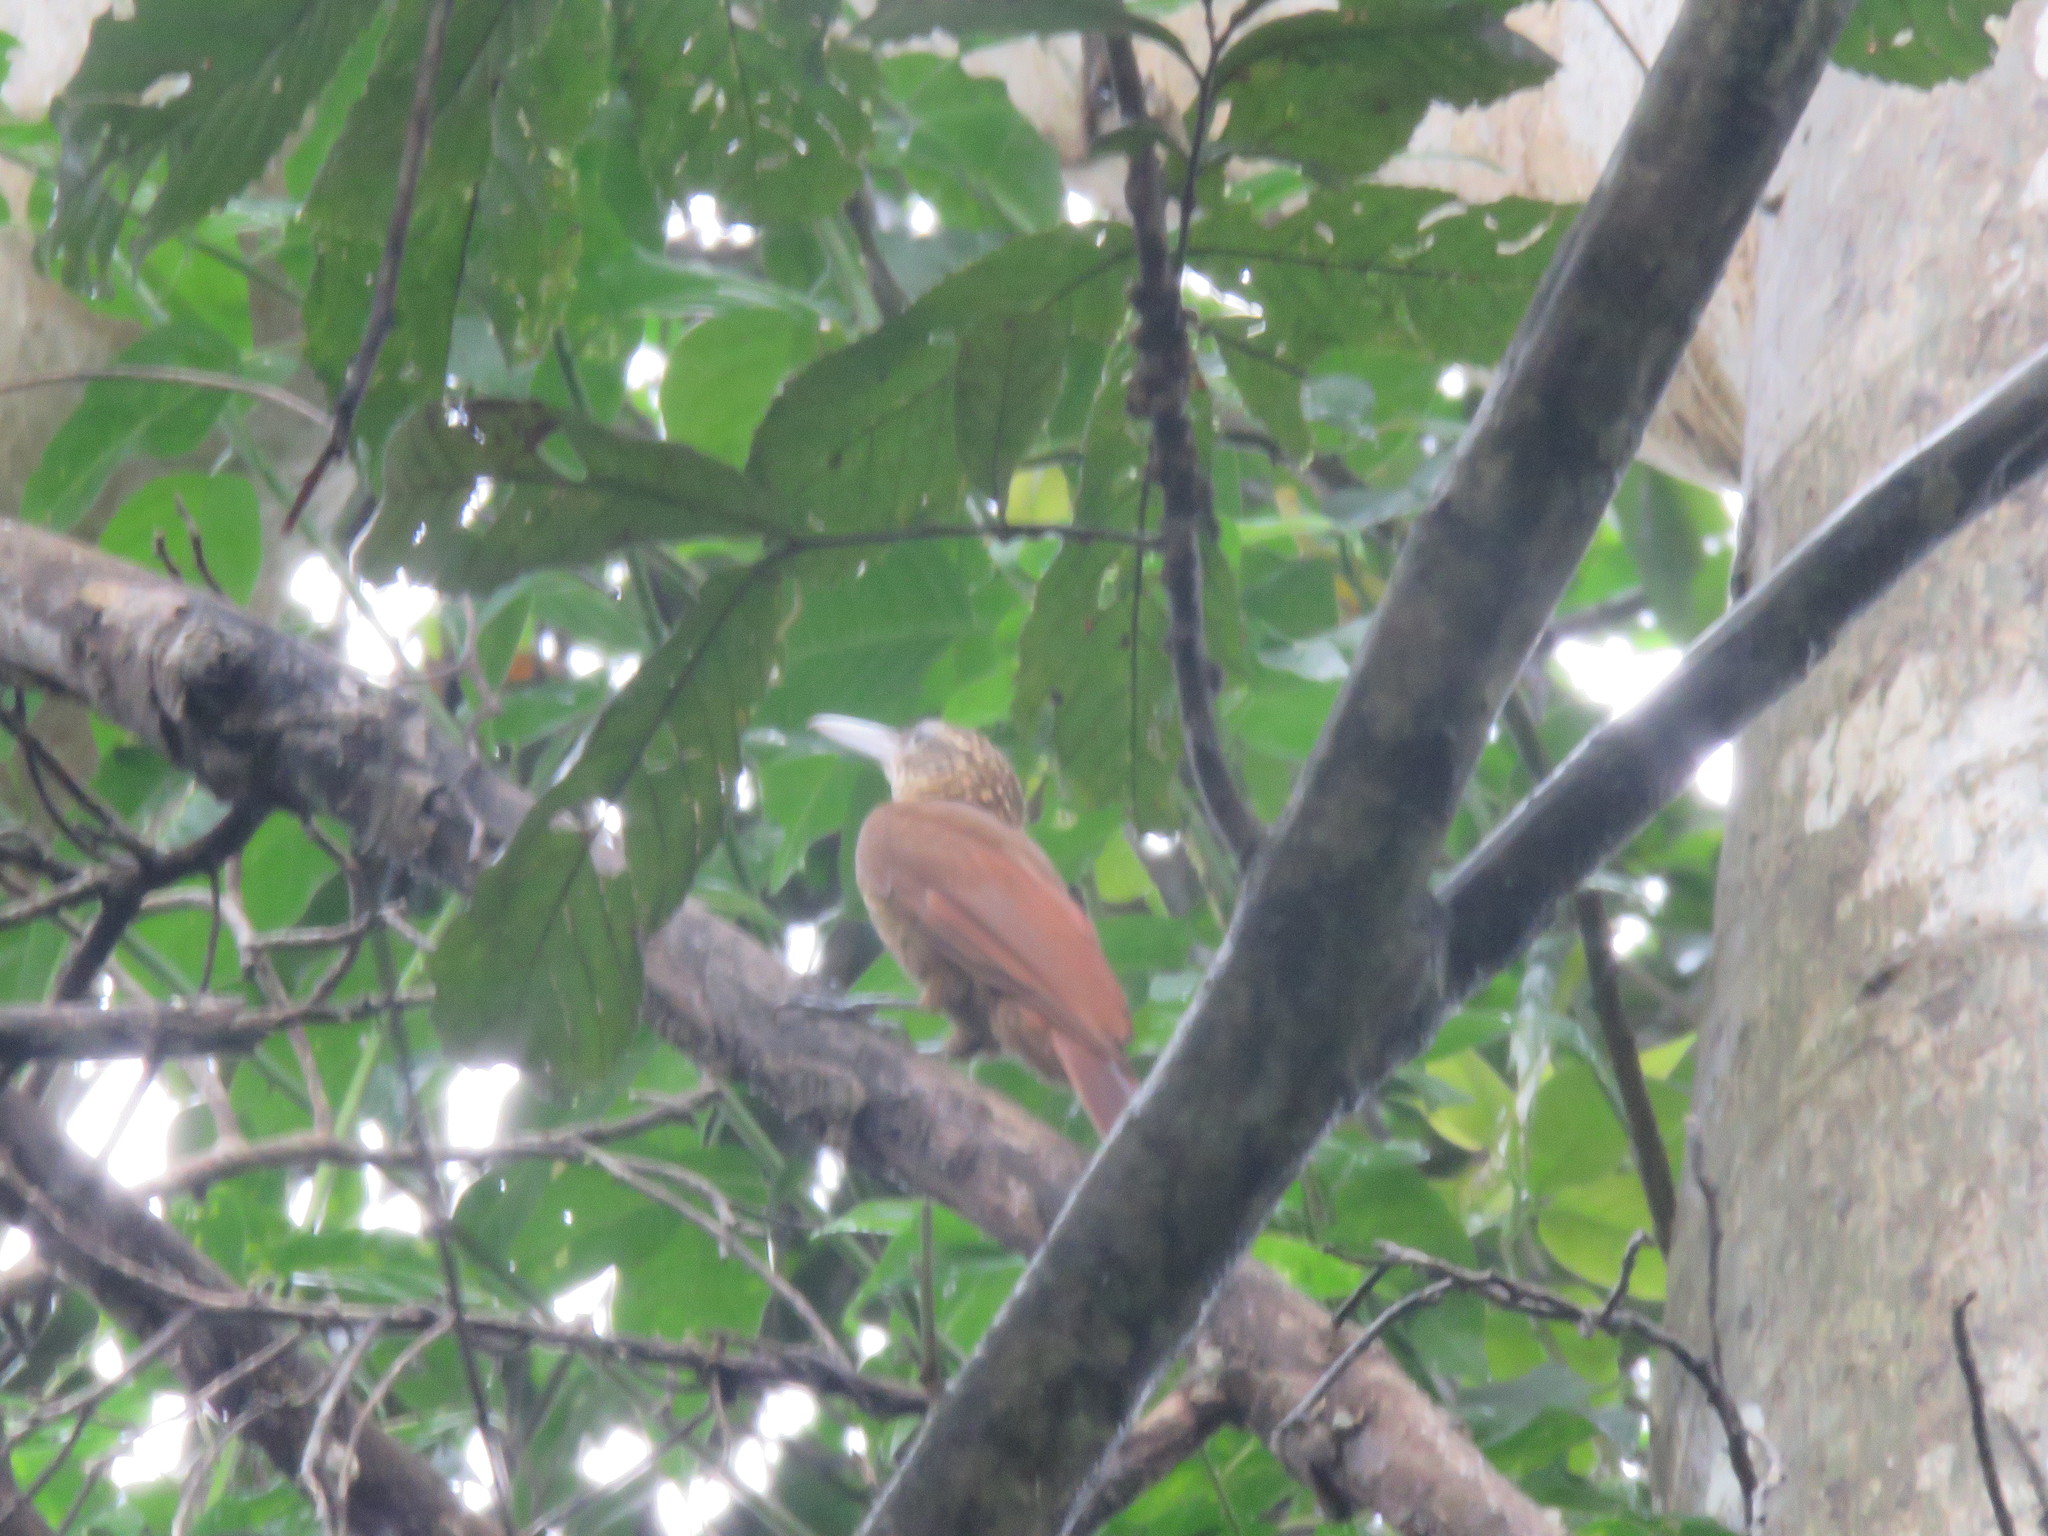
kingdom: Animalia
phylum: Chordata
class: Aves
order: Passeriformes
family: Furnariidae
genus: Xiphorhynchus
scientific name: Xiphorhynchus guttatus
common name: Buff-throated woodcreeper
